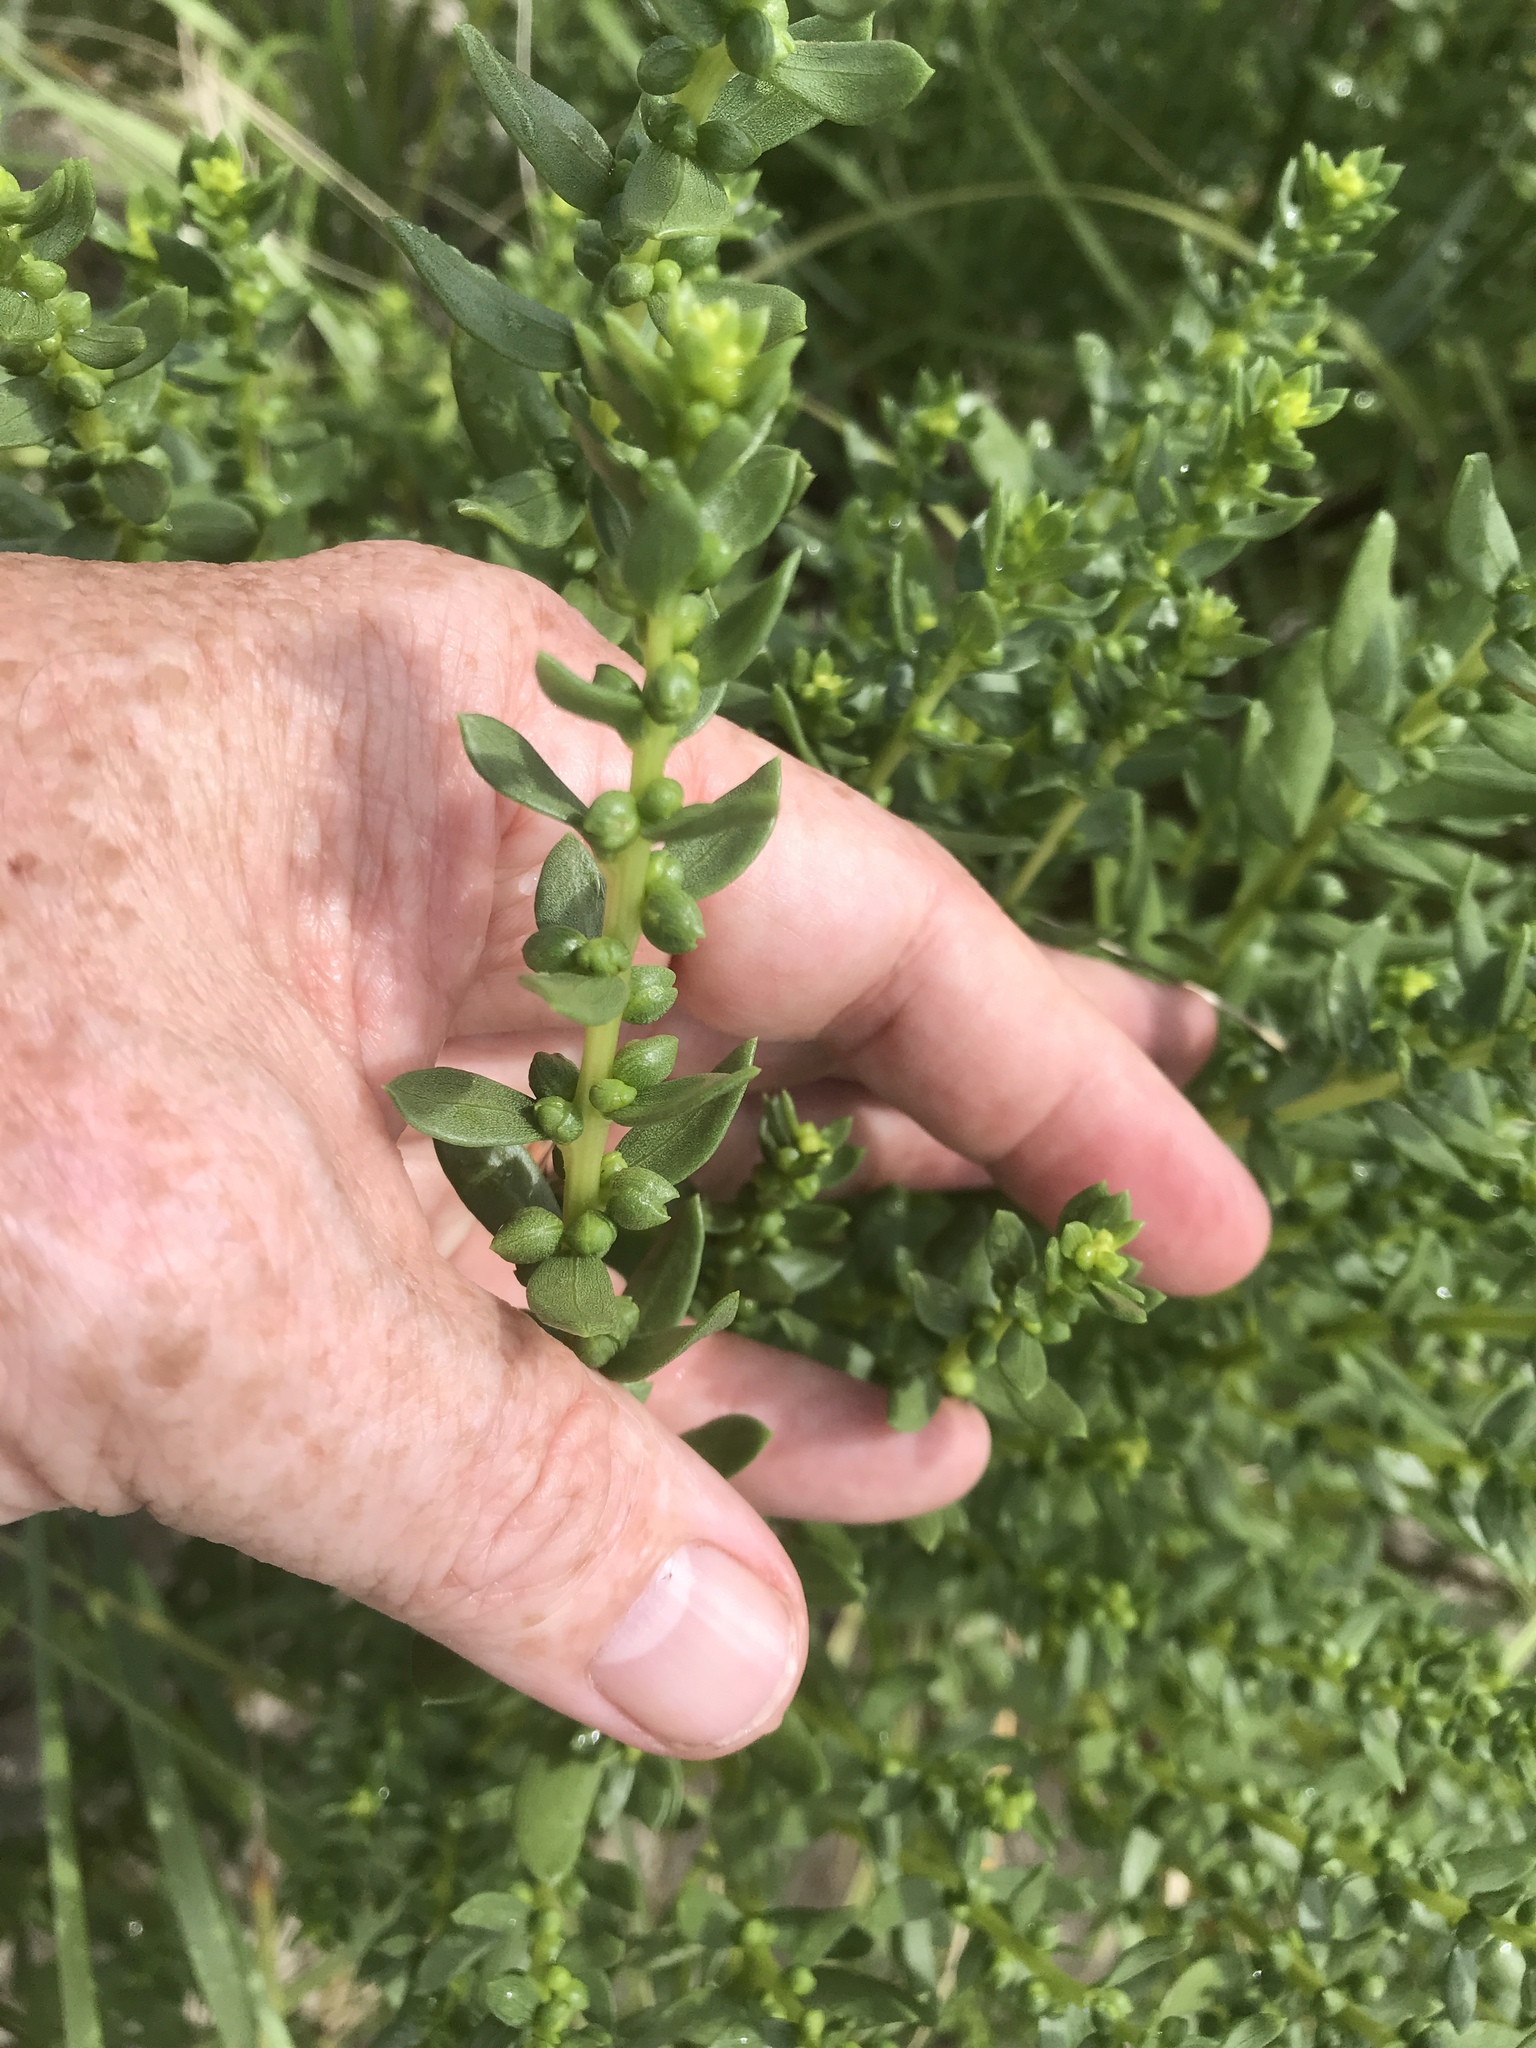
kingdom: Plantae
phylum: Tracheophyta
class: Magnoliopsida
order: Asterales
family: Asteraceae
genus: Iva
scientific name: Iva imbricata
